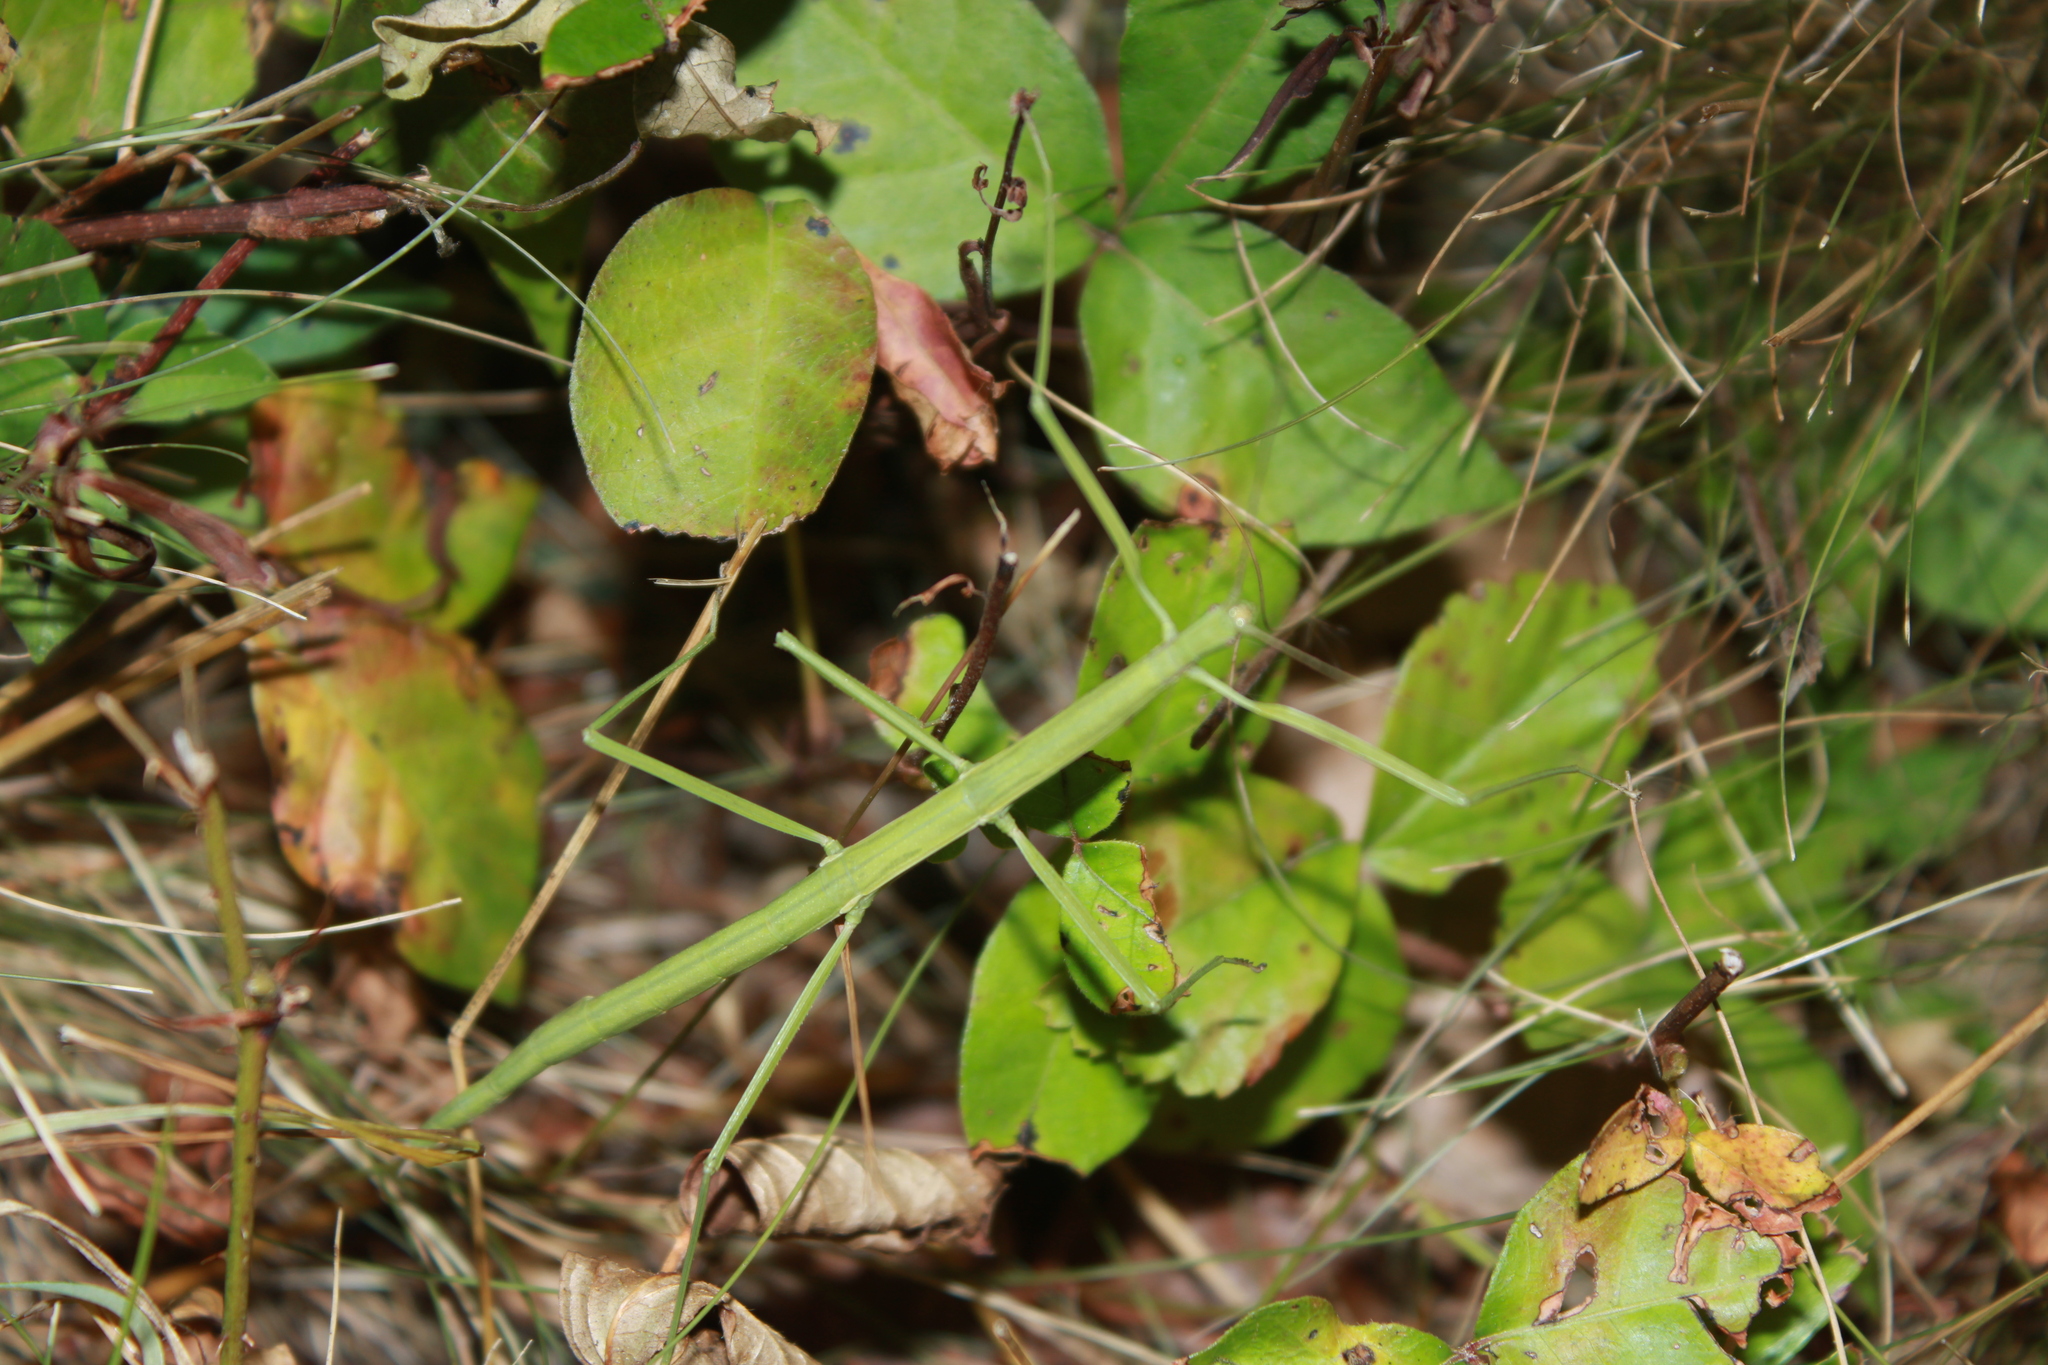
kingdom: Animalia
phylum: Arthropoda
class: Insecta
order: Phasmida
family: Diapheromeridae
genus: Manomera
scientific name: Manomera blatchleyi
